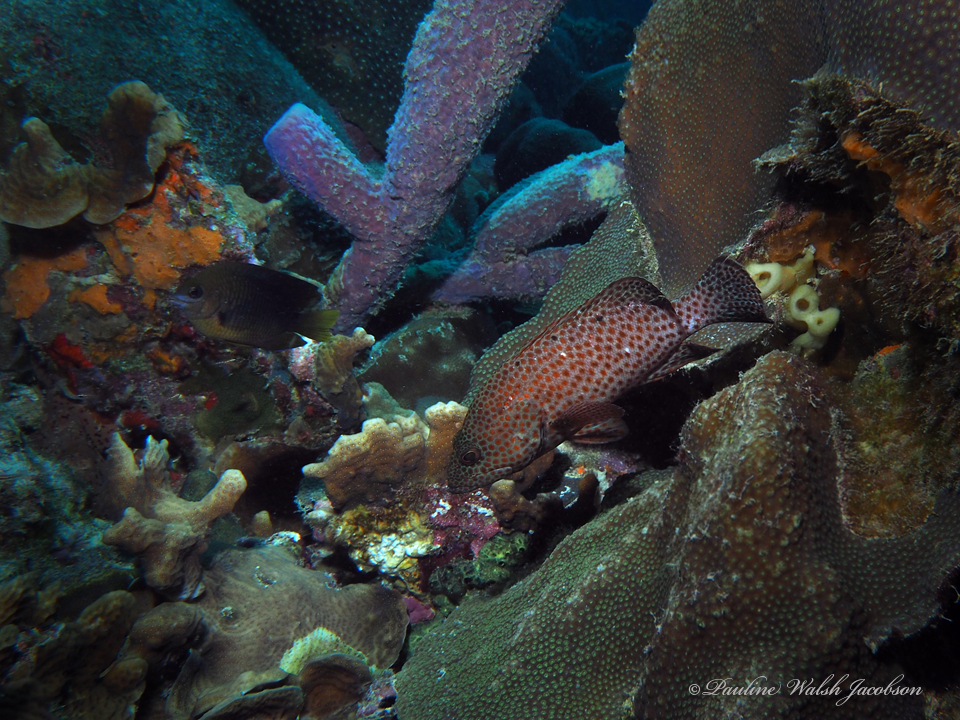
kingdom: Animalia
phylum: Chordata
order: Perciformes
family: Serranidae
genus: Cephalopholis
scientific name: Cephalopholis cruentata
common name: Graysby
